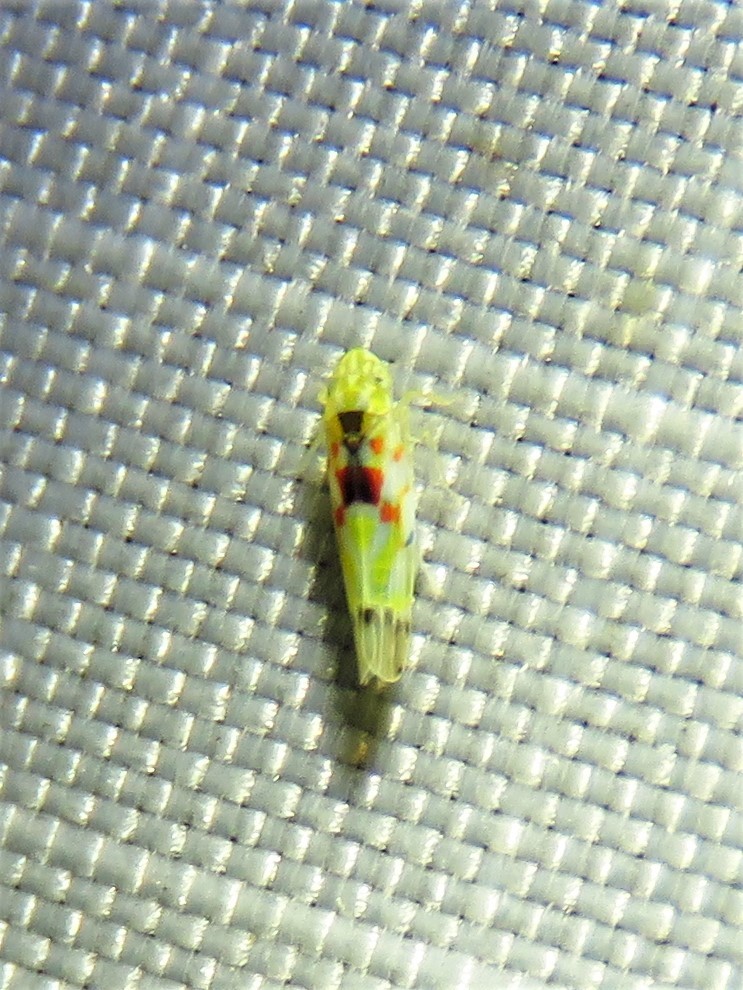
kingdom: Animalia
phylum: Arthropoda
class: Insecta
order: Hemiptera
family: Cicadellidae
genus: Erythroneura
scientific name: Erythroneura octonotata
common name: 8-spotted leafhopper
